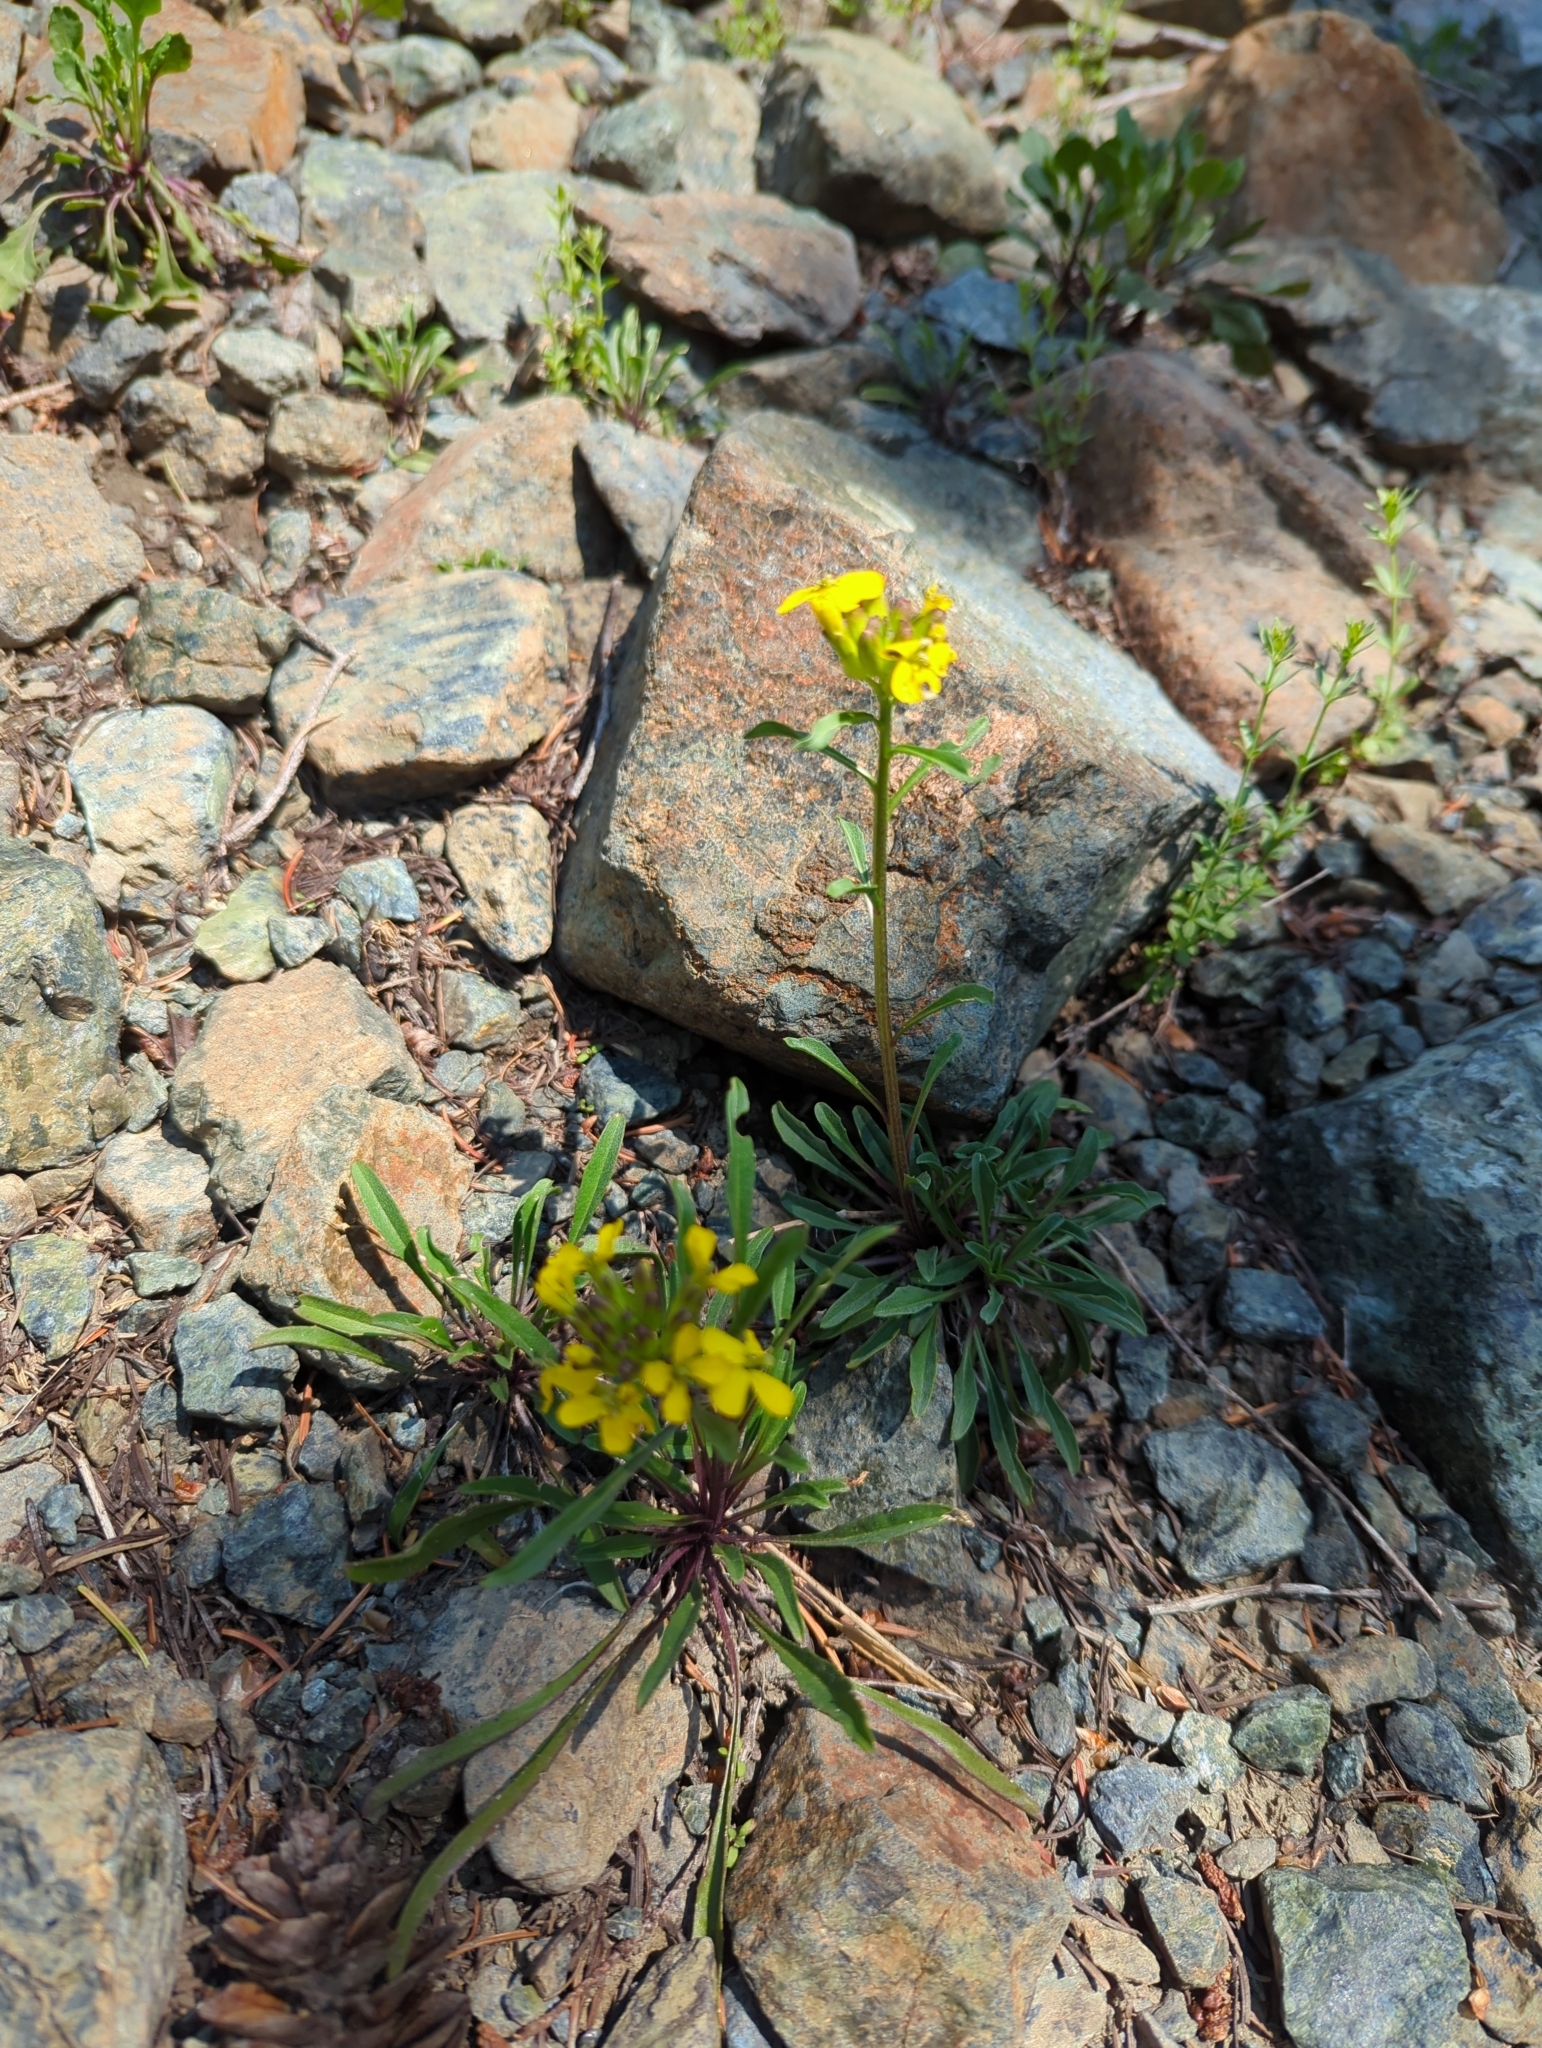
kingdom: Plantae
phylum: Tracheophyta
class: Magnoliopsida
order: Brassicales
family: Brassicaceae
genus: Erysimum
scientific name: Erysimum capitatum
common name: Western wallflower
